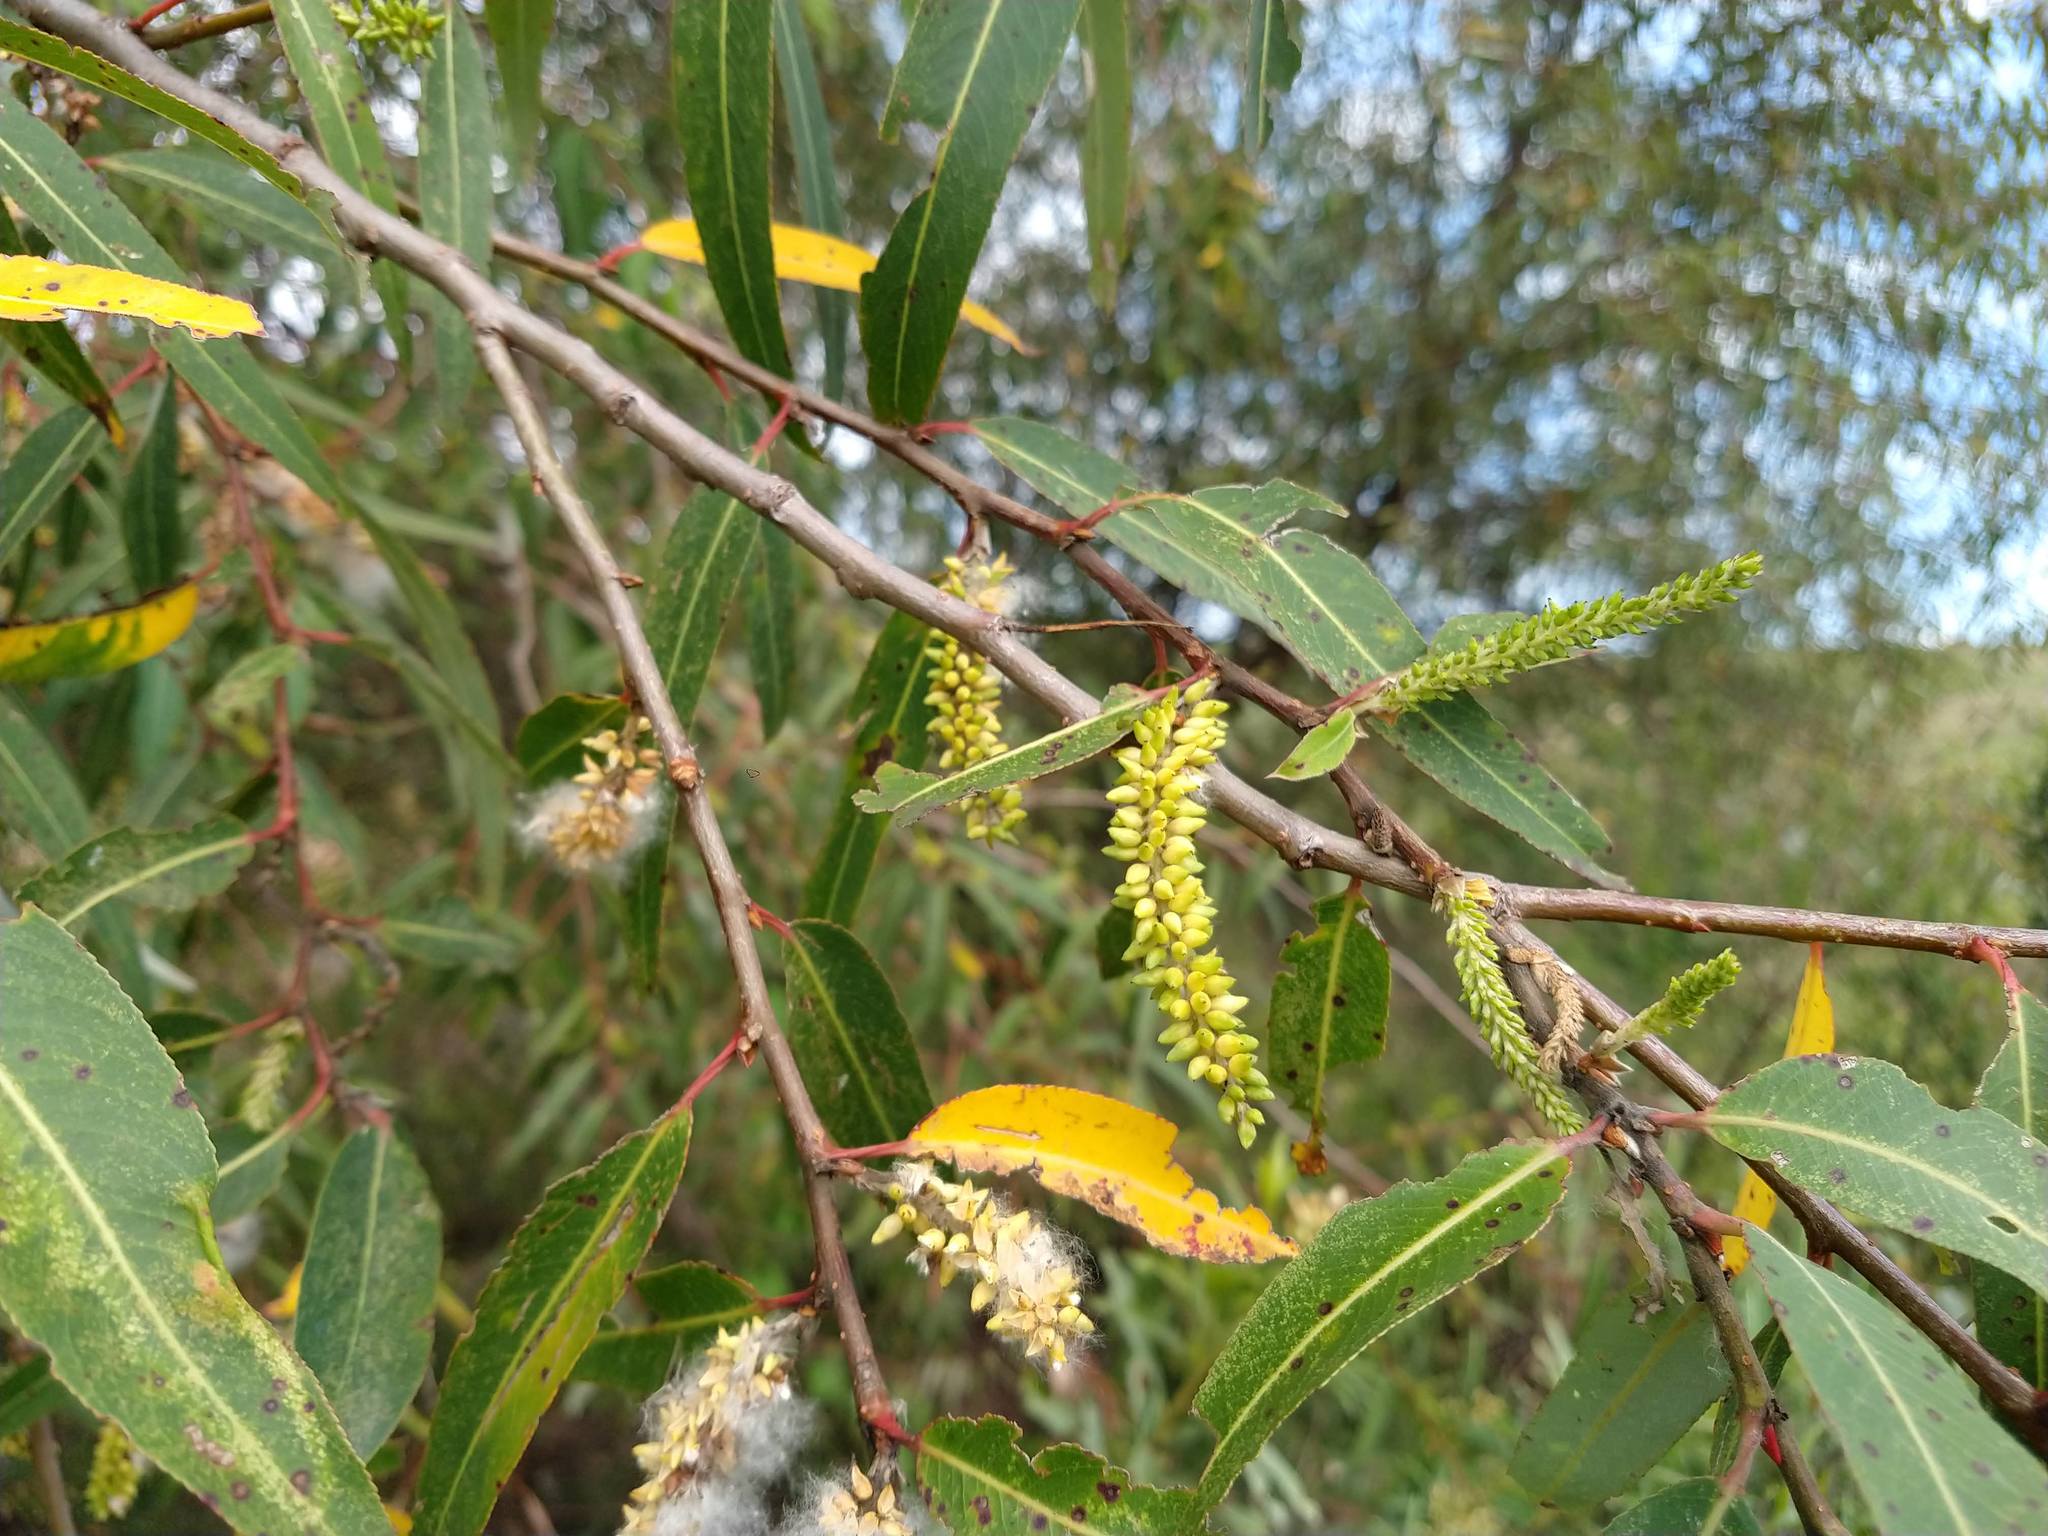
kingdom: Plantae
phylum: Tracheophyta
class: Magnoliopsida
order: Malpighiales
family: Salicaceae
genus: Salix
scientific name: Salix humboldtiana
